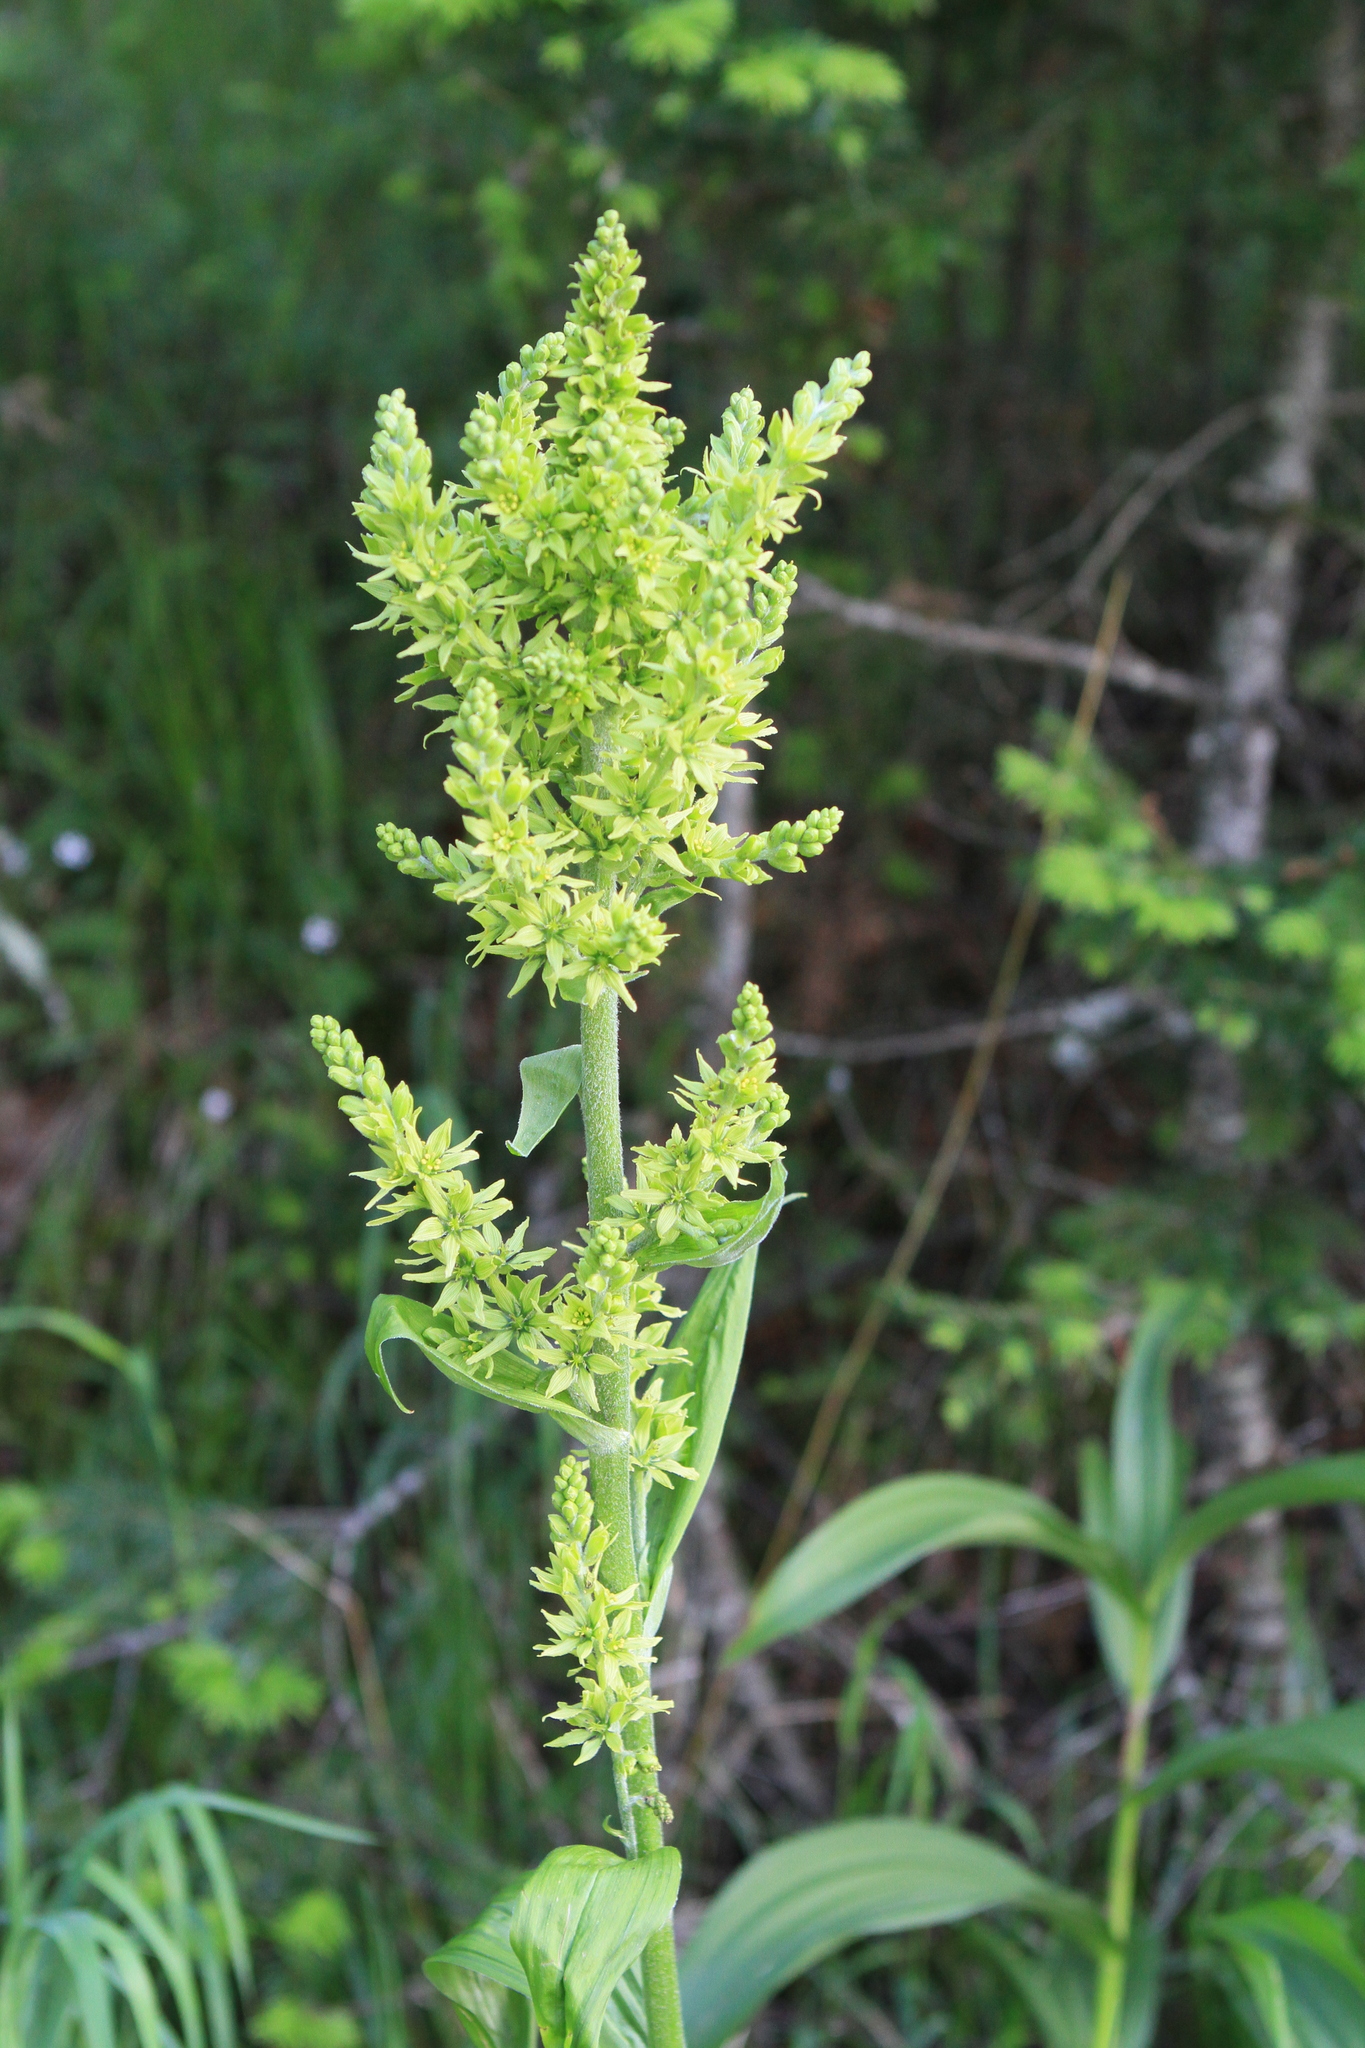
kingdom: Plantae
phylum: Tracheophyta
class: Liliopsida
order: Liliales
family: Melanthiaceae
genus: Veratrum
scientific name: Veratrum lobelianum
